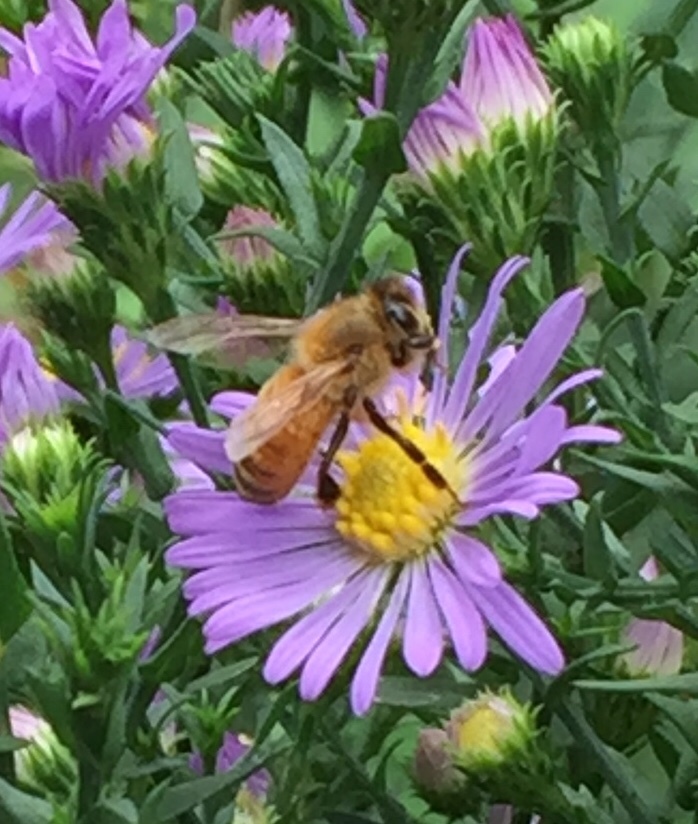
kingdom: Animalia
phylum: Arthropoda
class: Insecta
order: Hymenoptera
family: Apidae
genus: Apis
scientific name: Apis mellifera
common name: Honey bee
